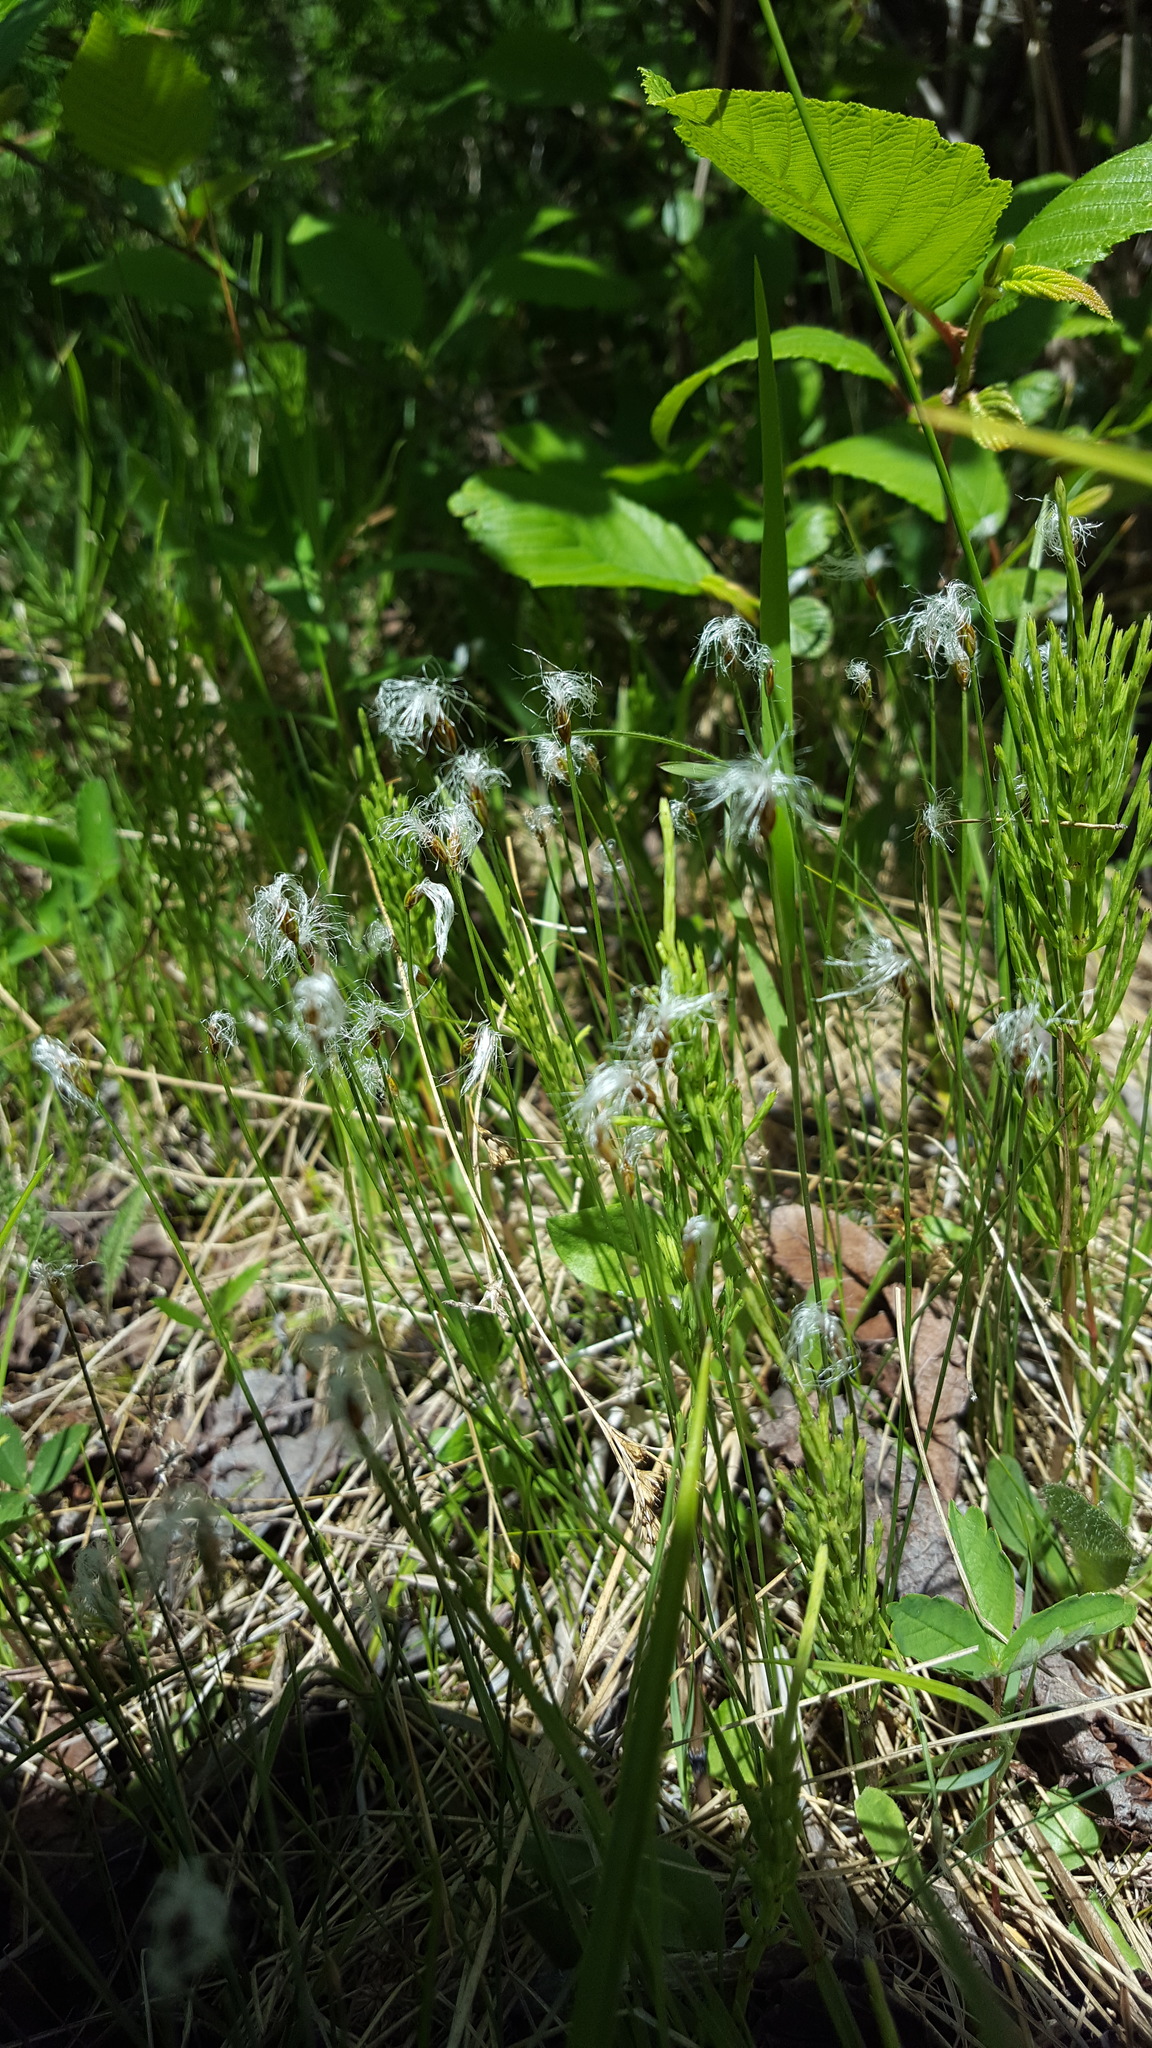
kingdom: Plantae
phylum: Tracheophyta
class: Liliopsida
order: Poales
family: Cyperaceae
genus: Trichophorum
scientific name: Trichophorum alpinum
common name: Alpine bulrush
